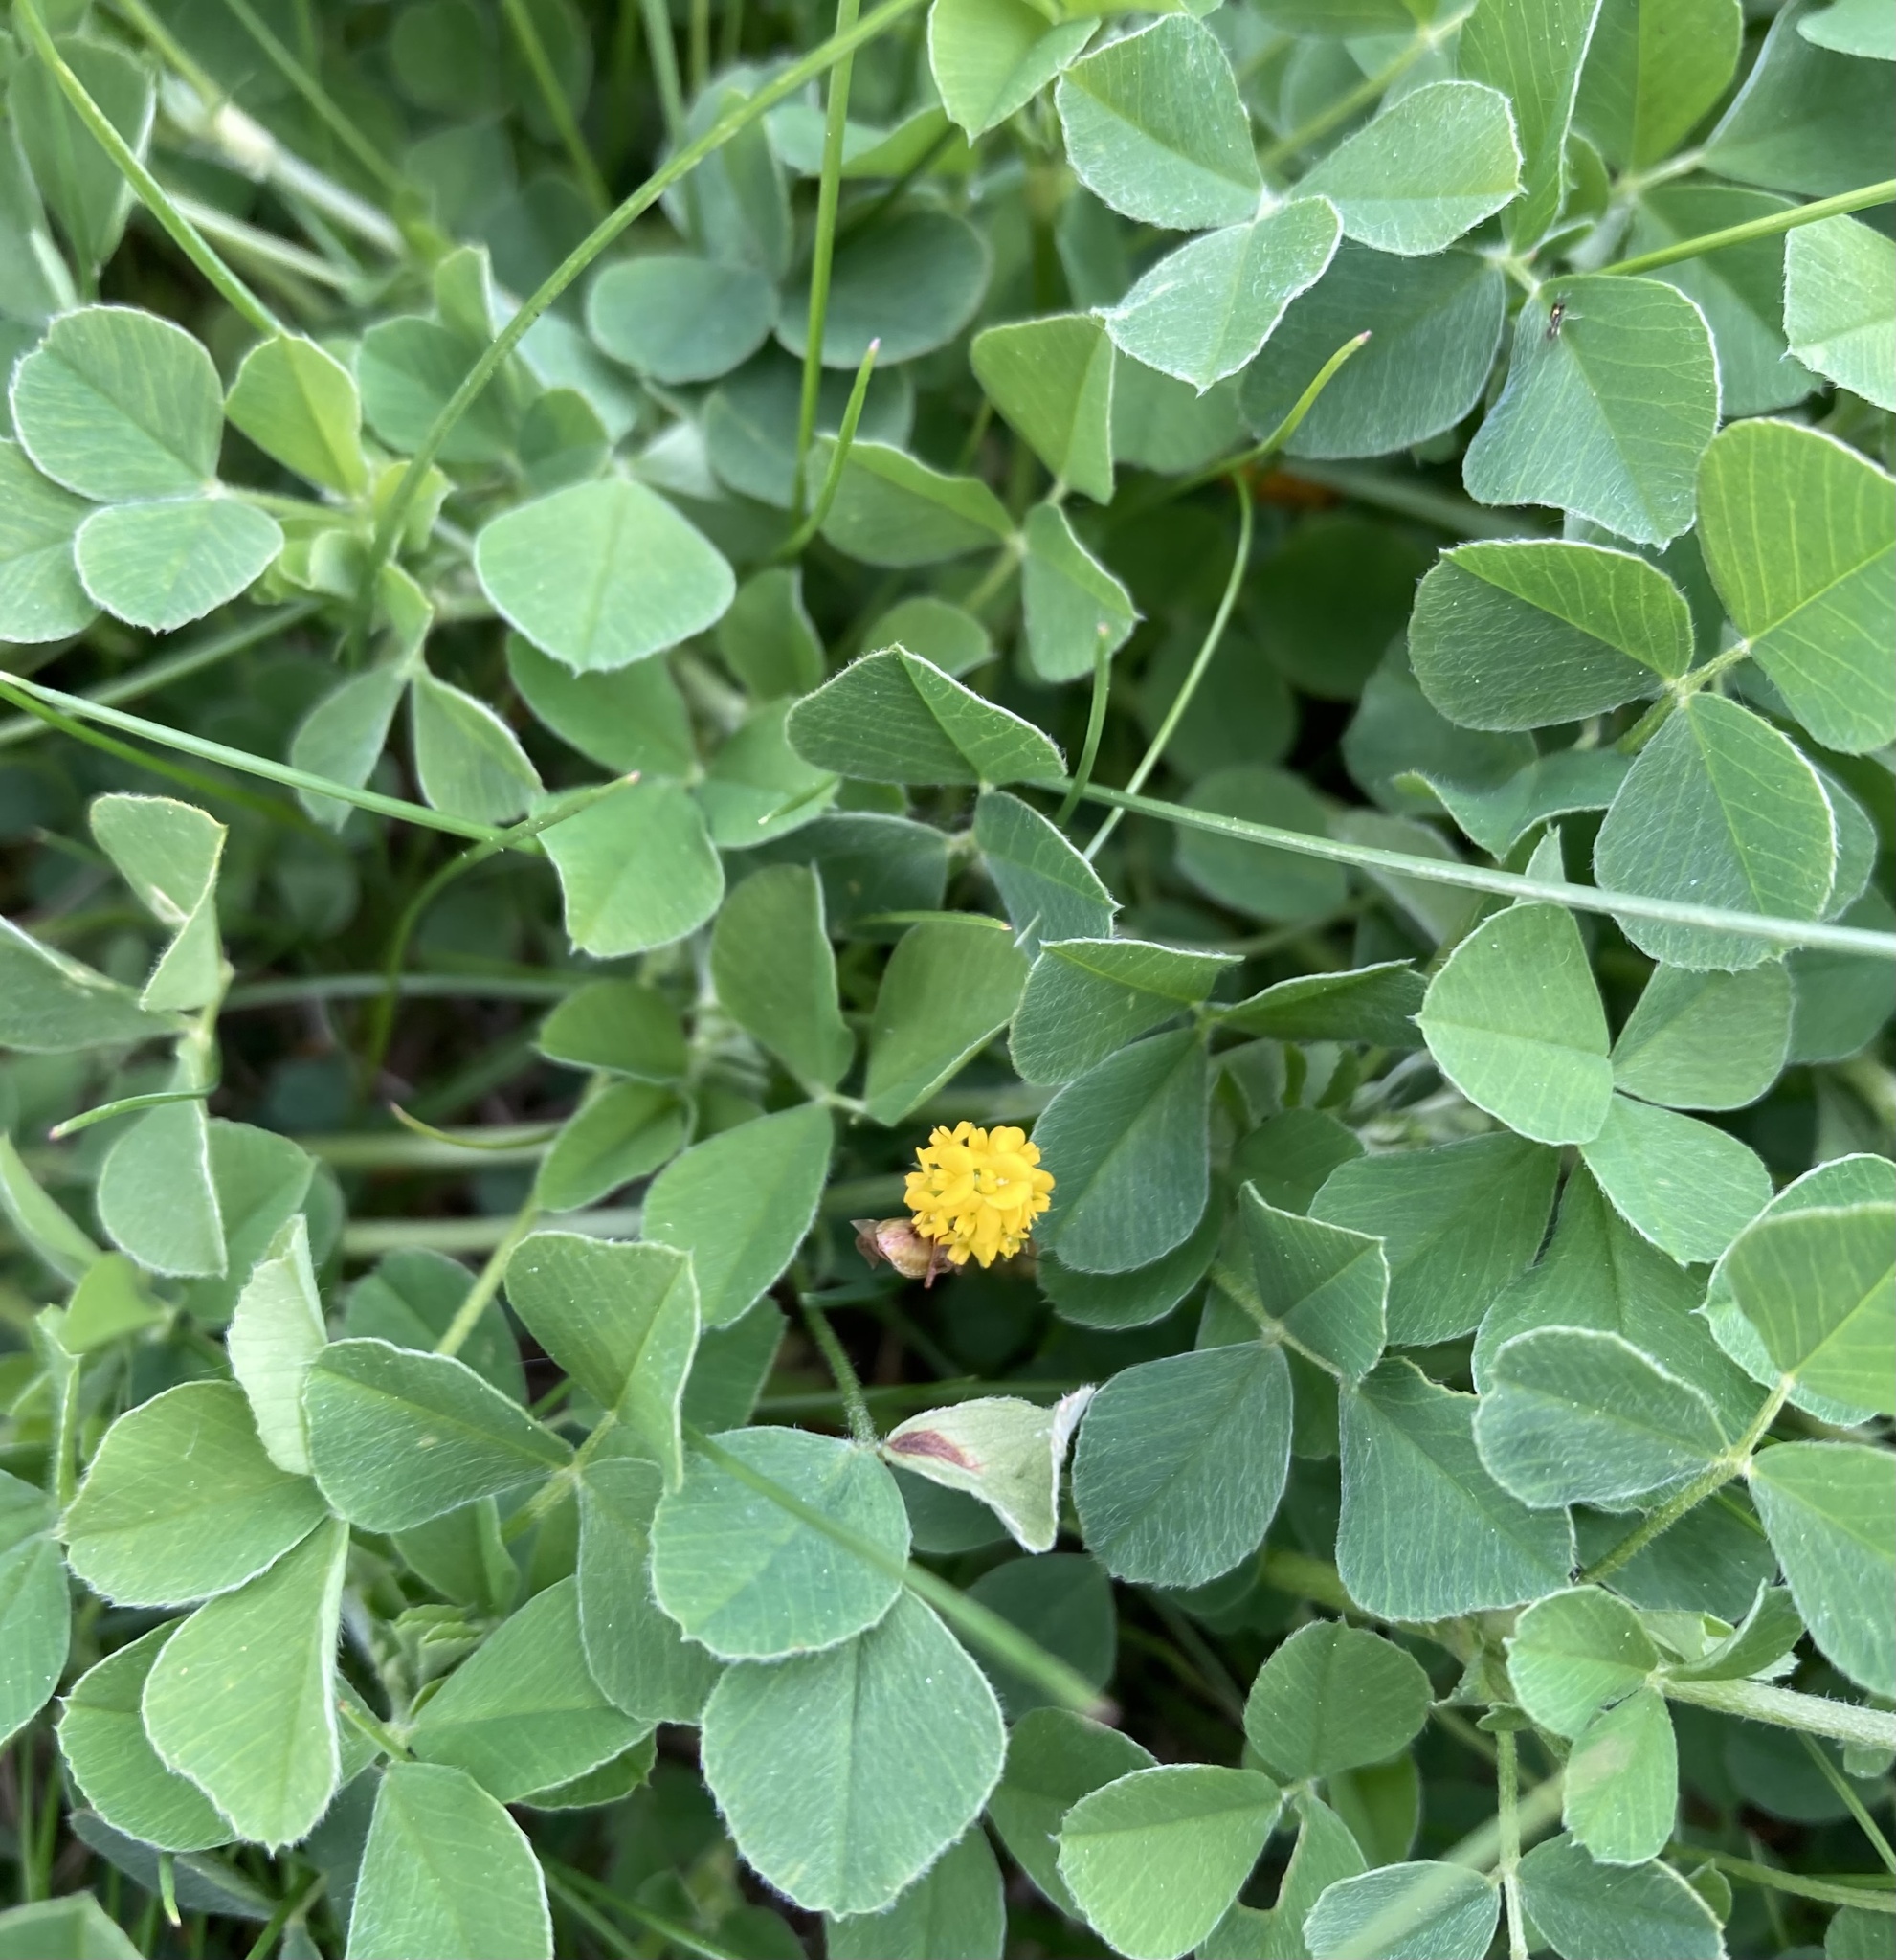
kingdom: Plantae
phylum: Tracheophyta
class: Magnoliopsida
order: Fabales
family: Fabaceae
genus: Medicago
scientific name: Medicago lupulina
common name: Black medick
